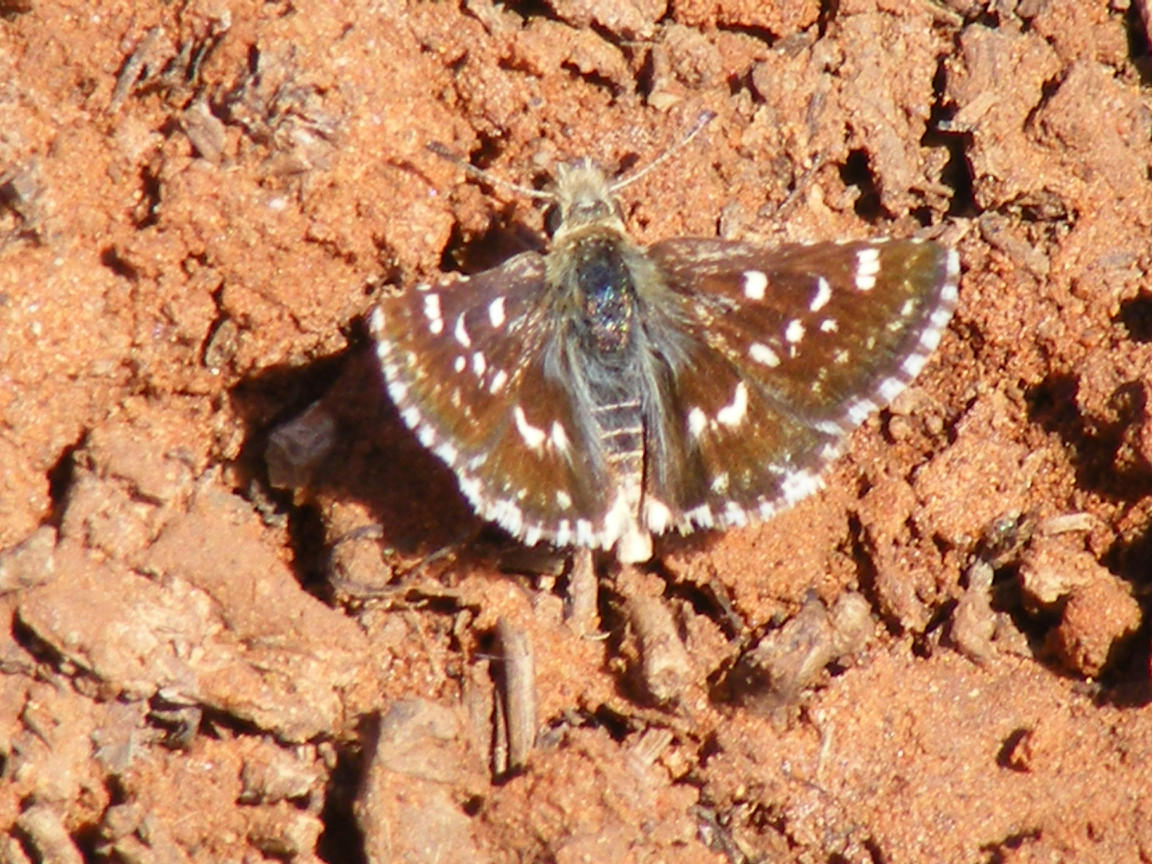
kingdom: Animalia
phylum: Arthropoda
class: Insecta
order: Lepidoptera
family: Hesperiidae
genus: Ernsta
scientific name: Ernsta
